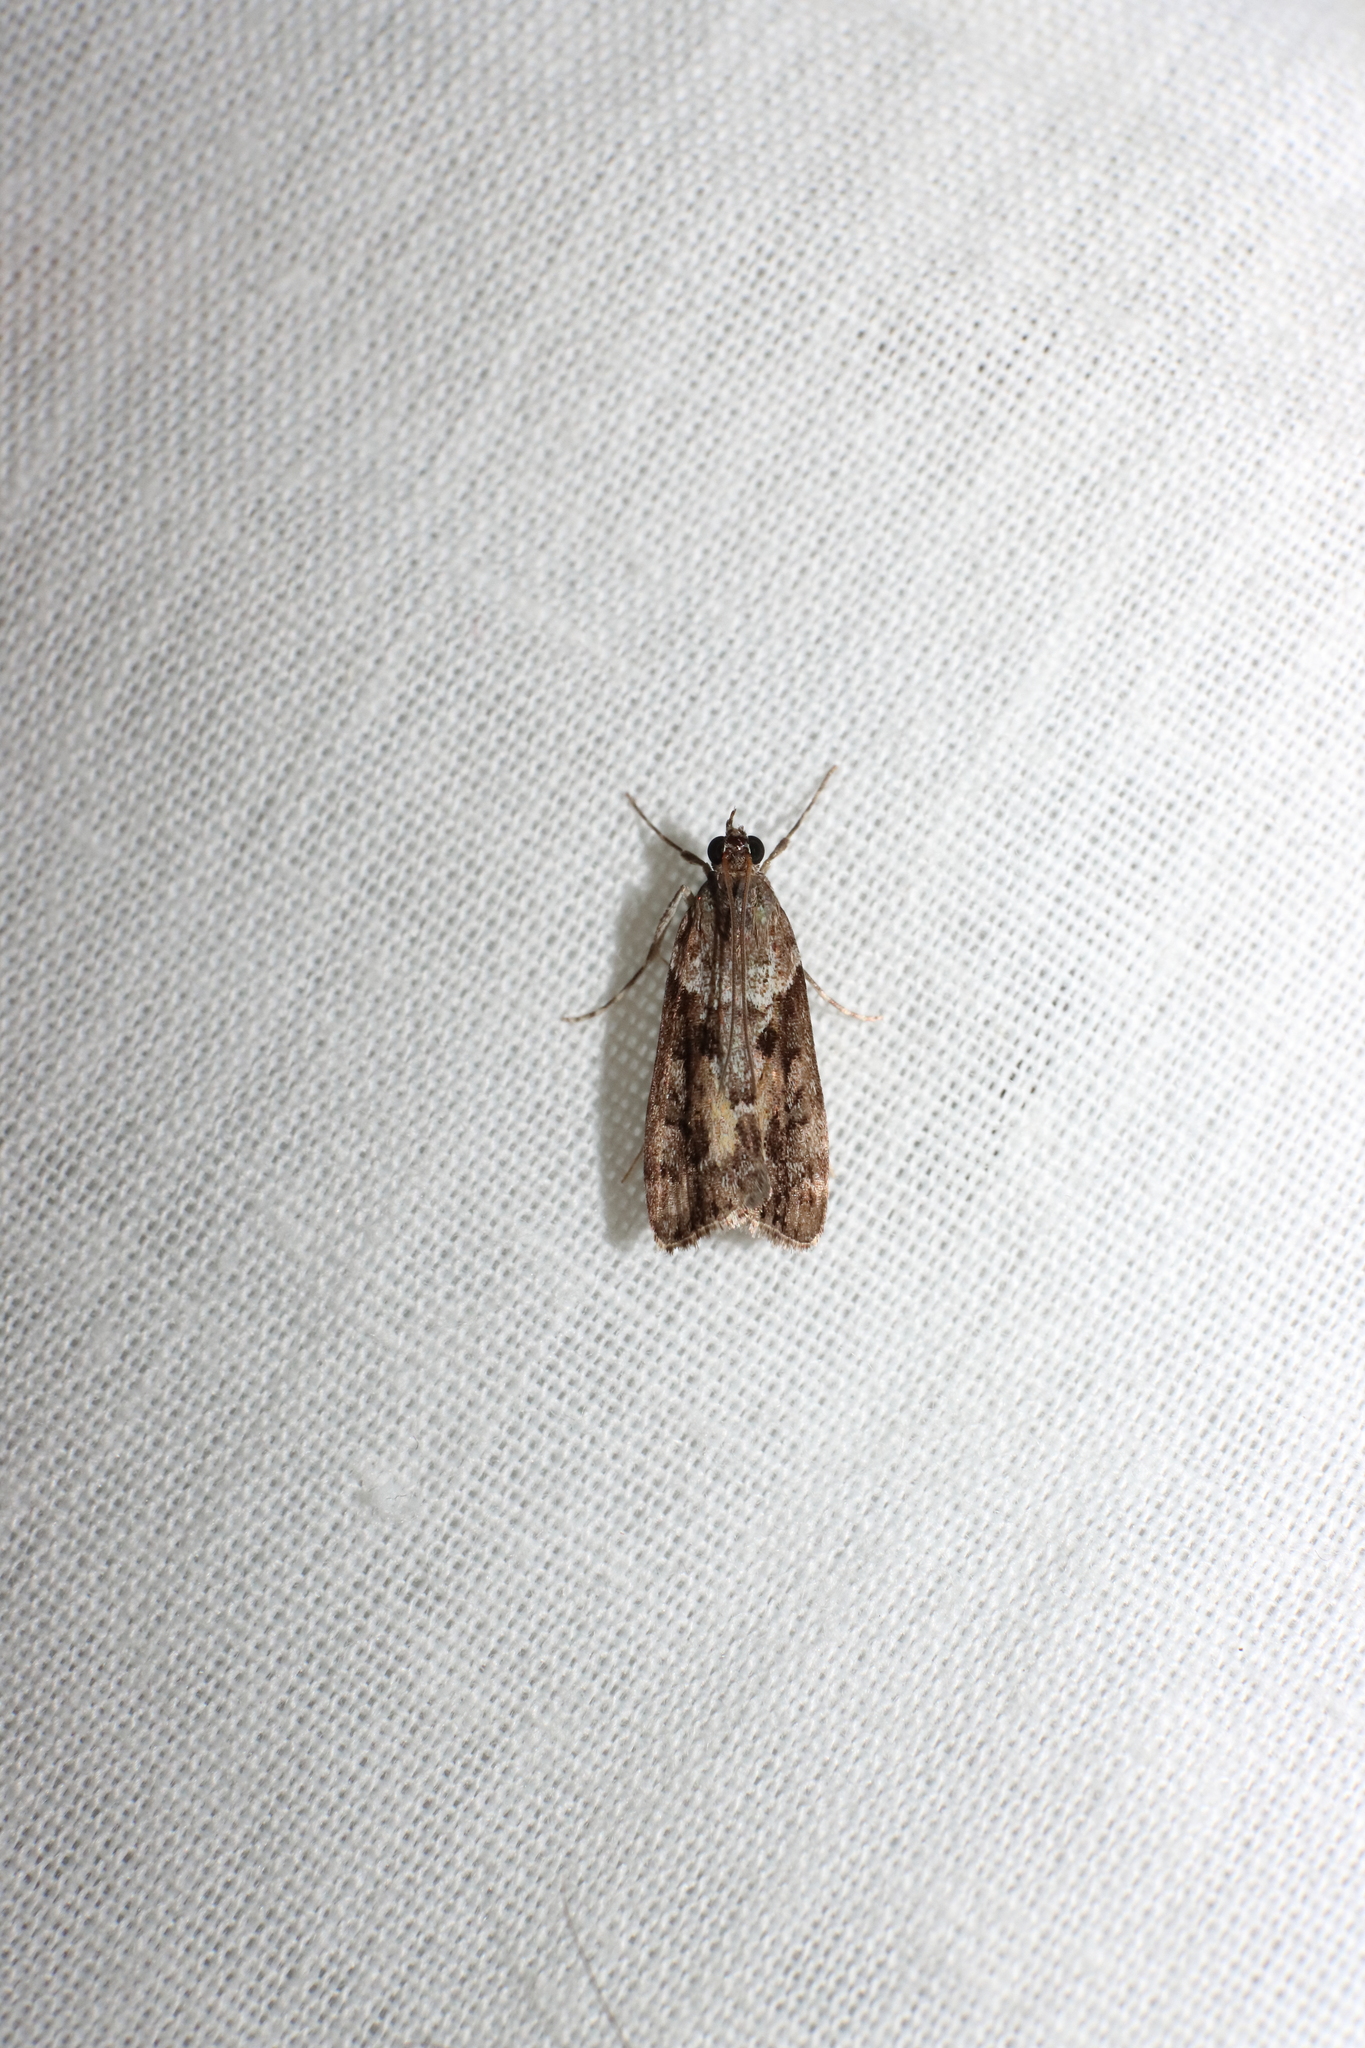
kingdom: Animalia
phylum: Arthropoda
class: Insecta
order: Lepidoptera
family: Crambidae
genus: Eudonia
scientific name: Eudonia submarginalis
